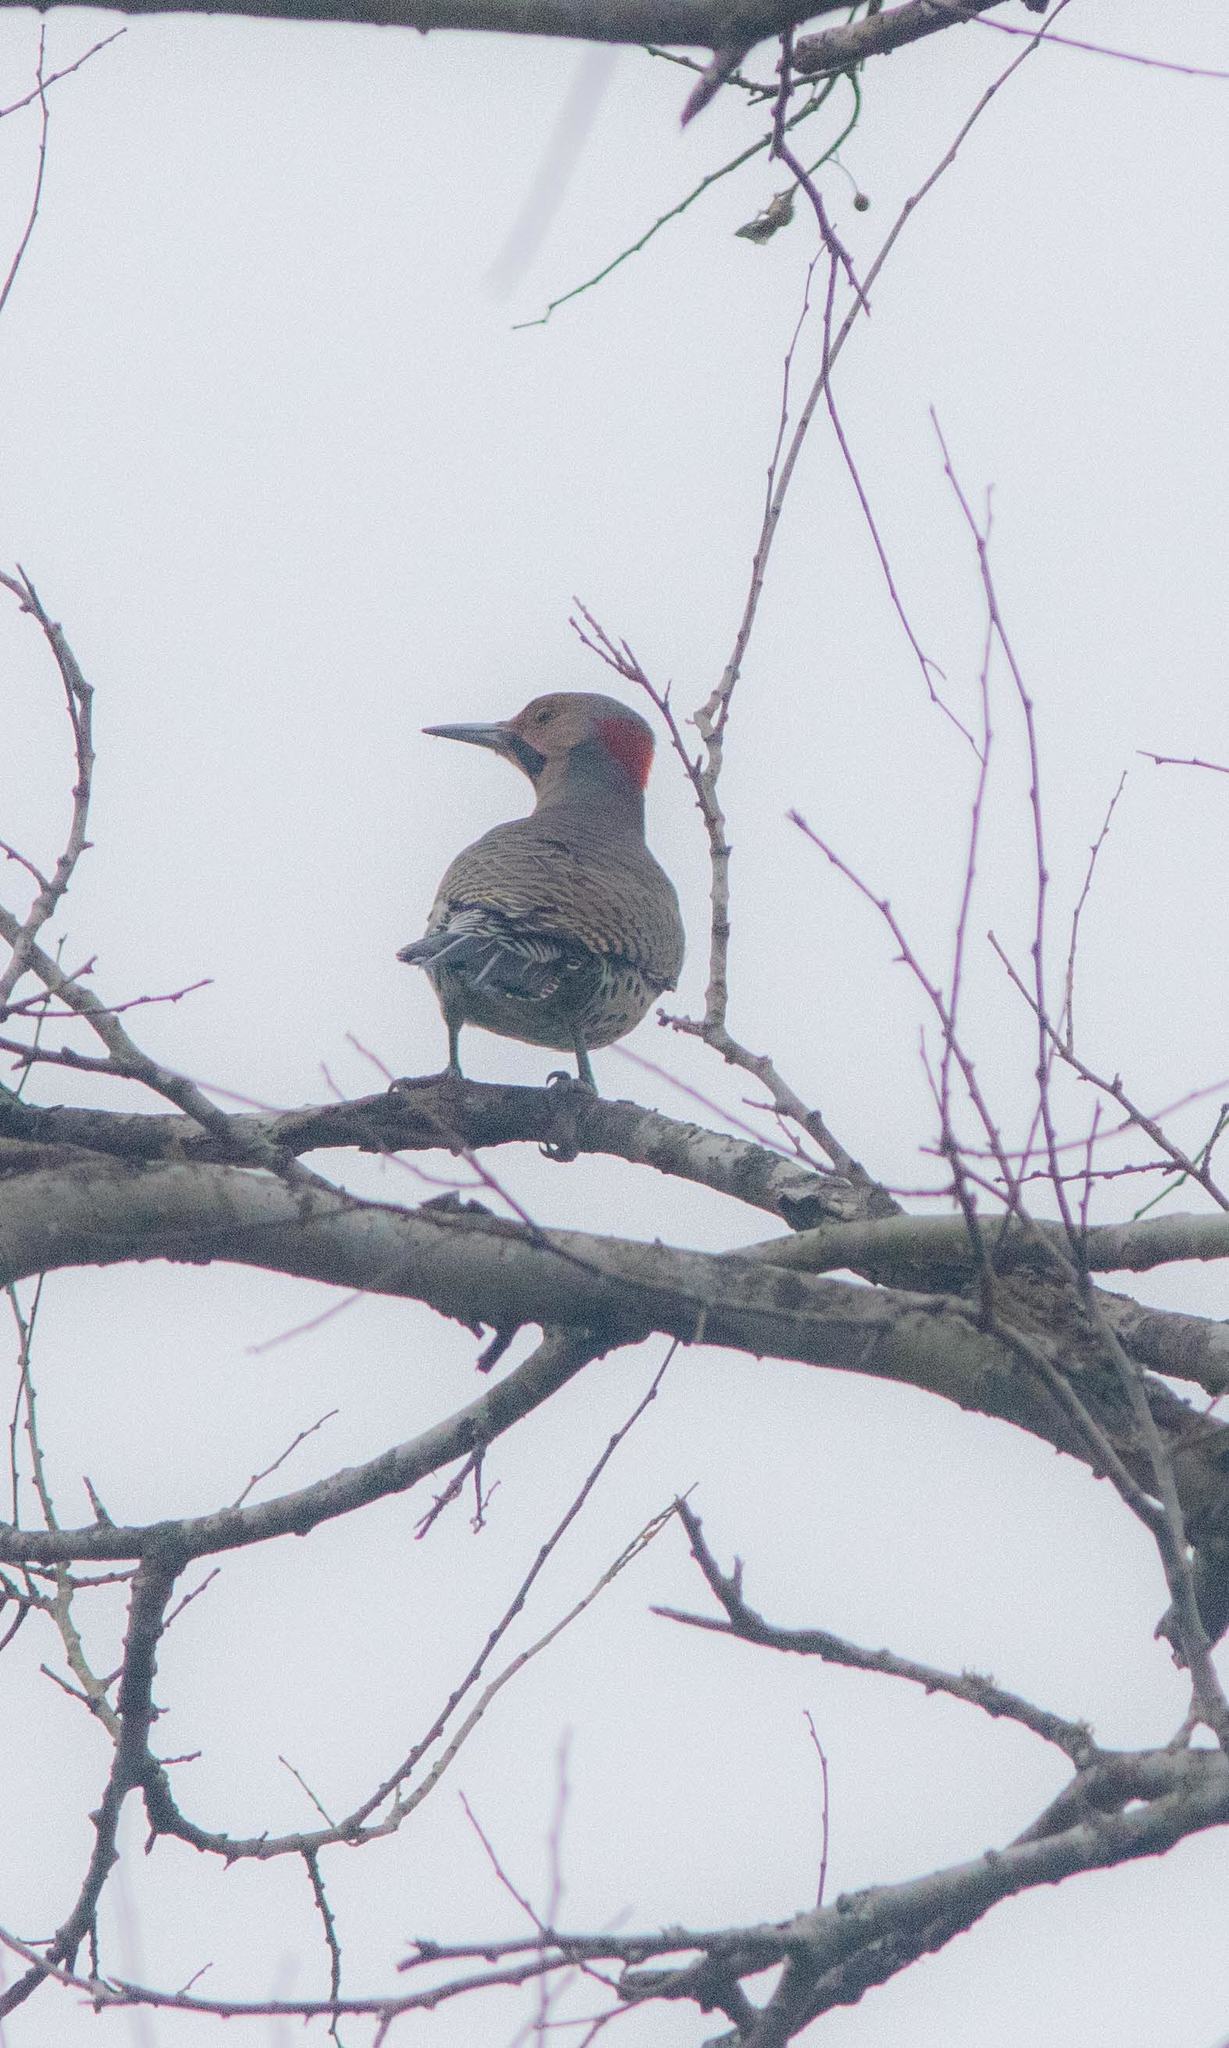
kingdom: Animalia
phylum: Chordata
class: Aves
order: Piciformes
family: Picidae
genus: Colaptes
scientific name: Colaptes auratus
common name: Northern flicker
